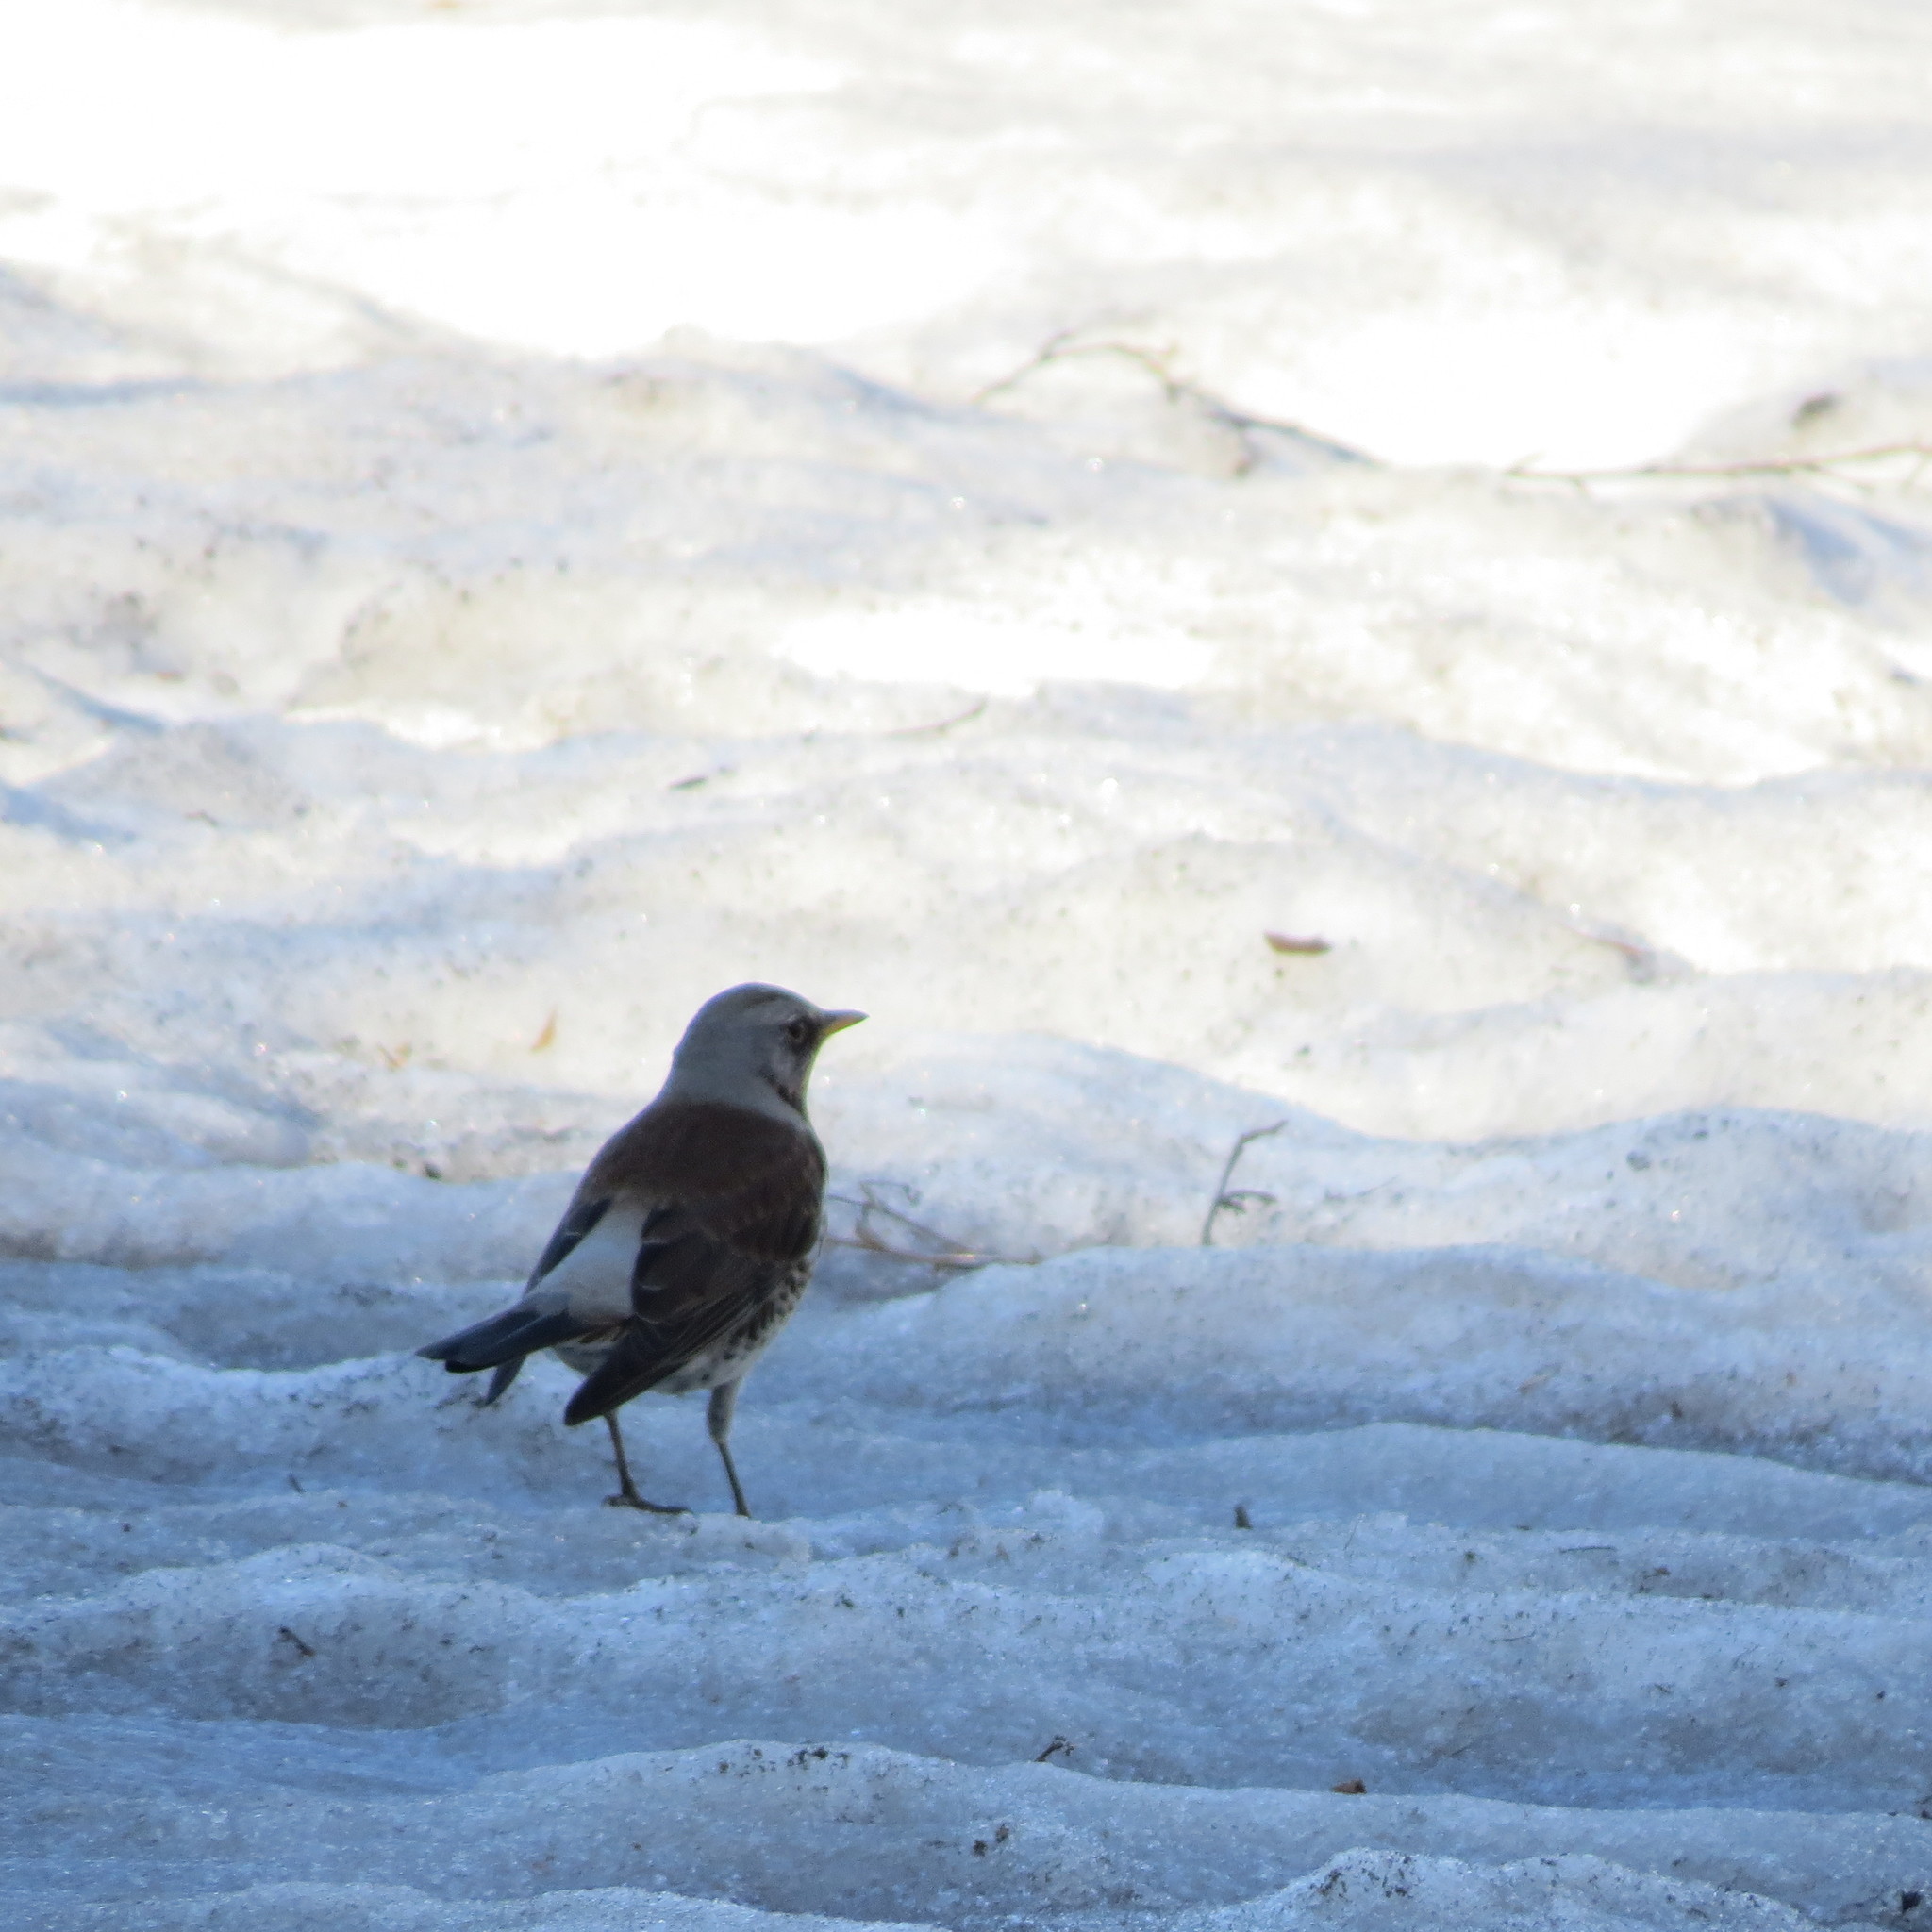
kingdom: Animalia
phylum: Chordata
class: Aves
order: Passeriformes
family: Turdidae
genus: Turdus
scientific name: Turdus pilaris
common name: Fieldfare
